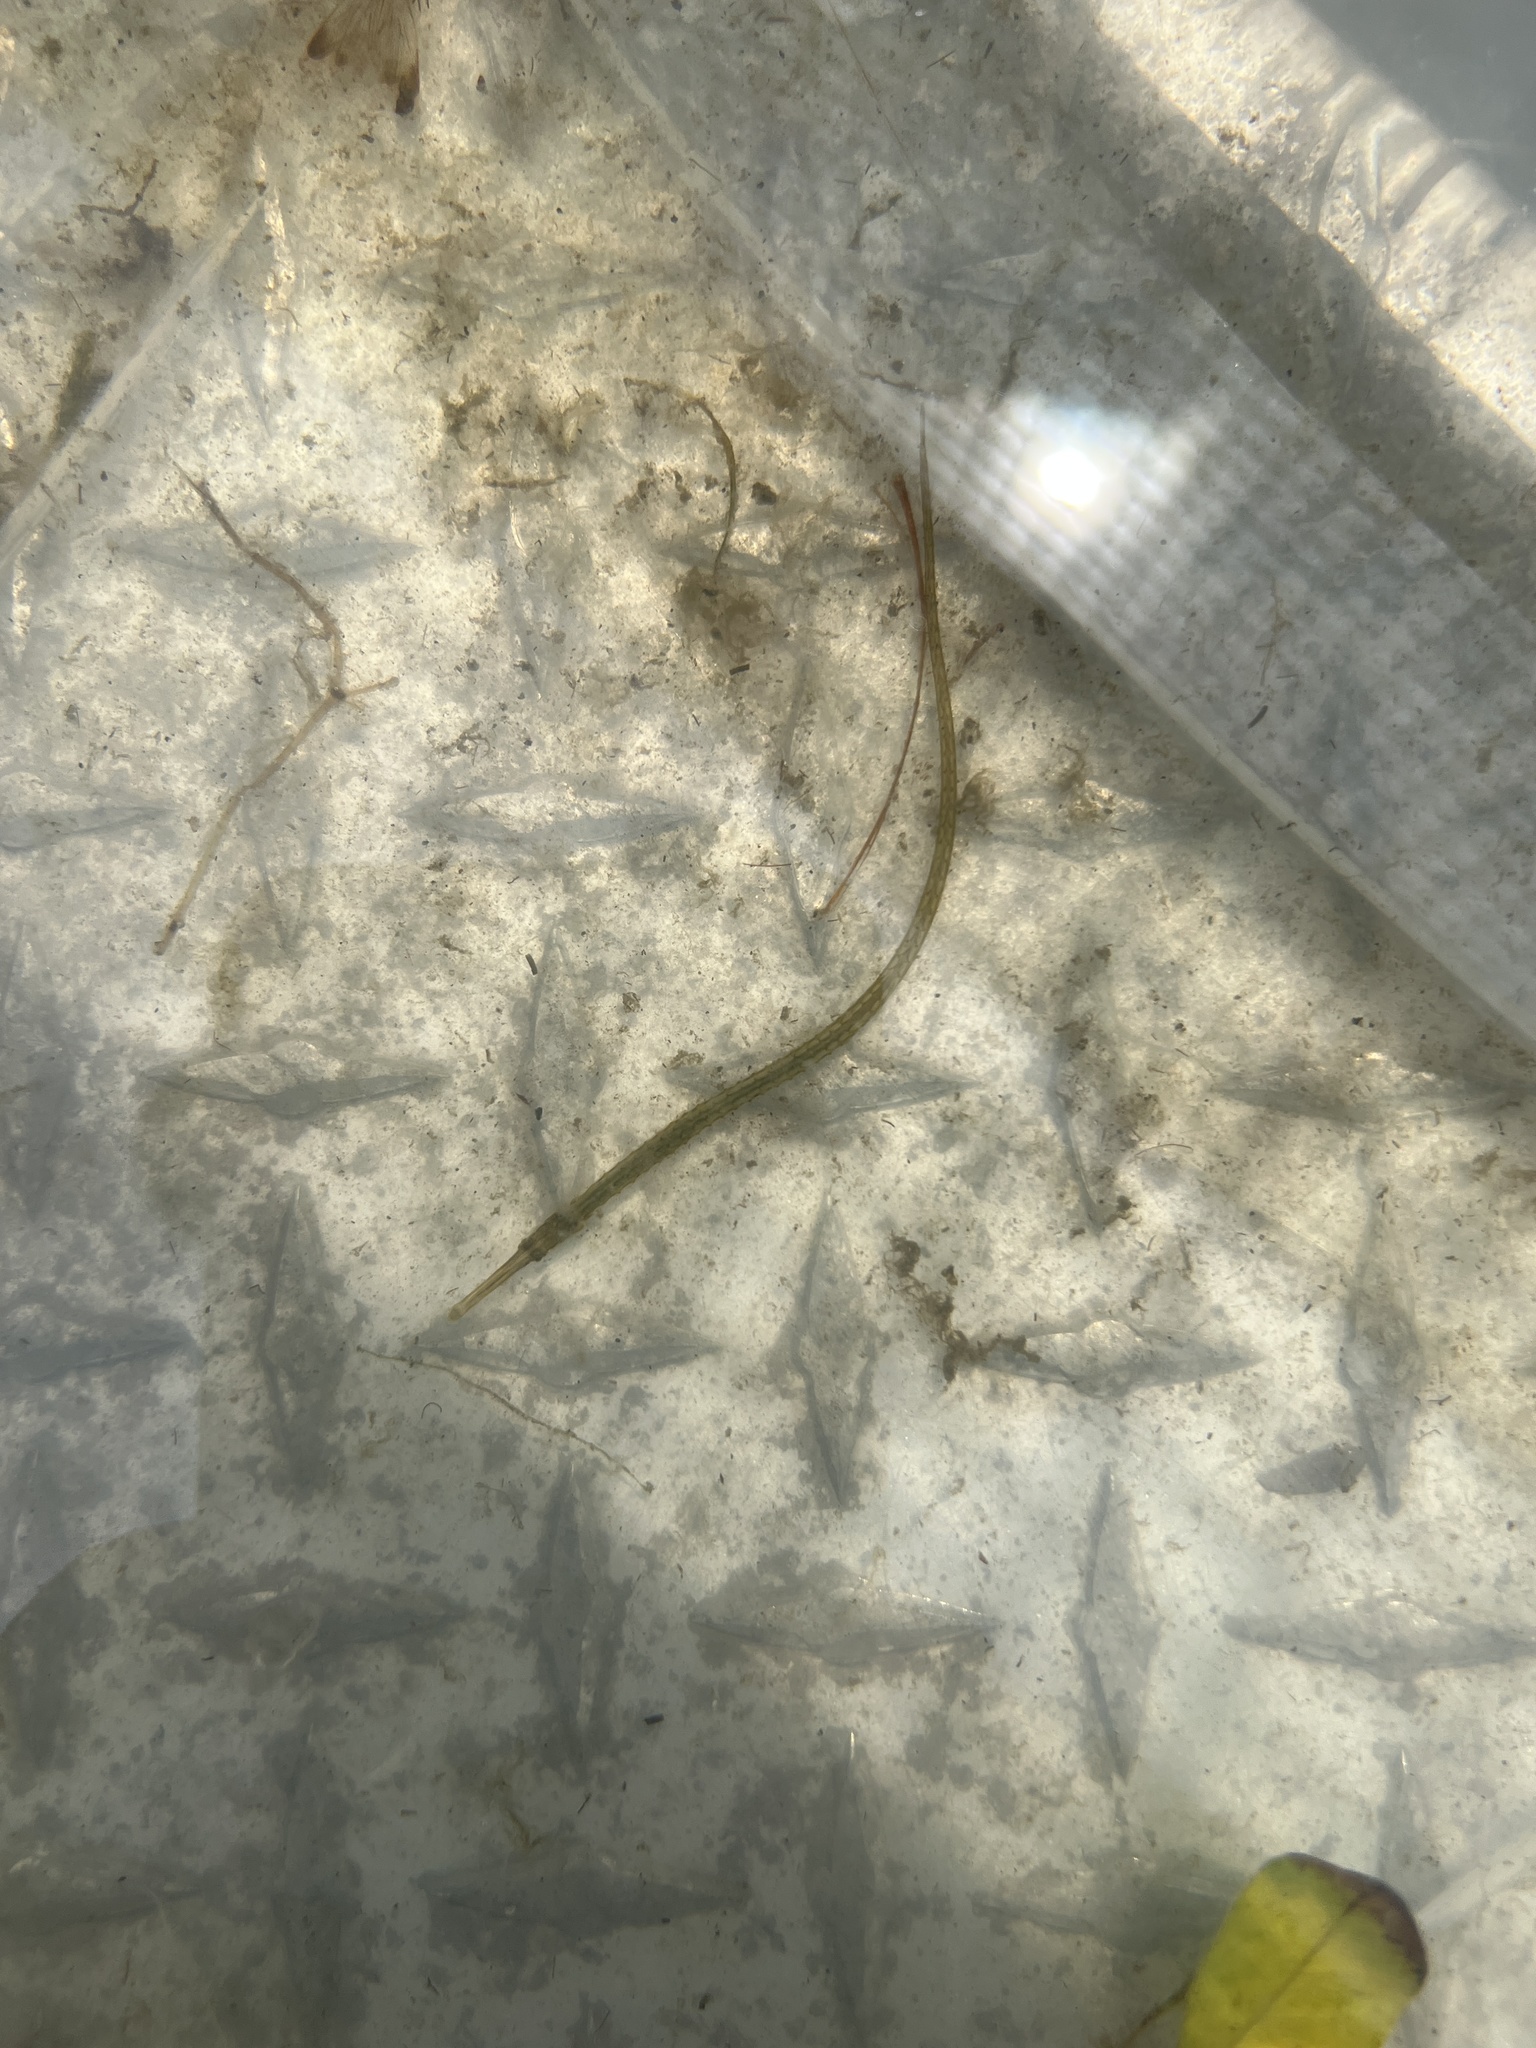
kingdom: Animalia
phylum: Chordata
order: Syngnathiformes
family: Syngnathidae
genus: Syngnathus
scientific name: Syngnathus fuscus
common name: Northern pipefish
